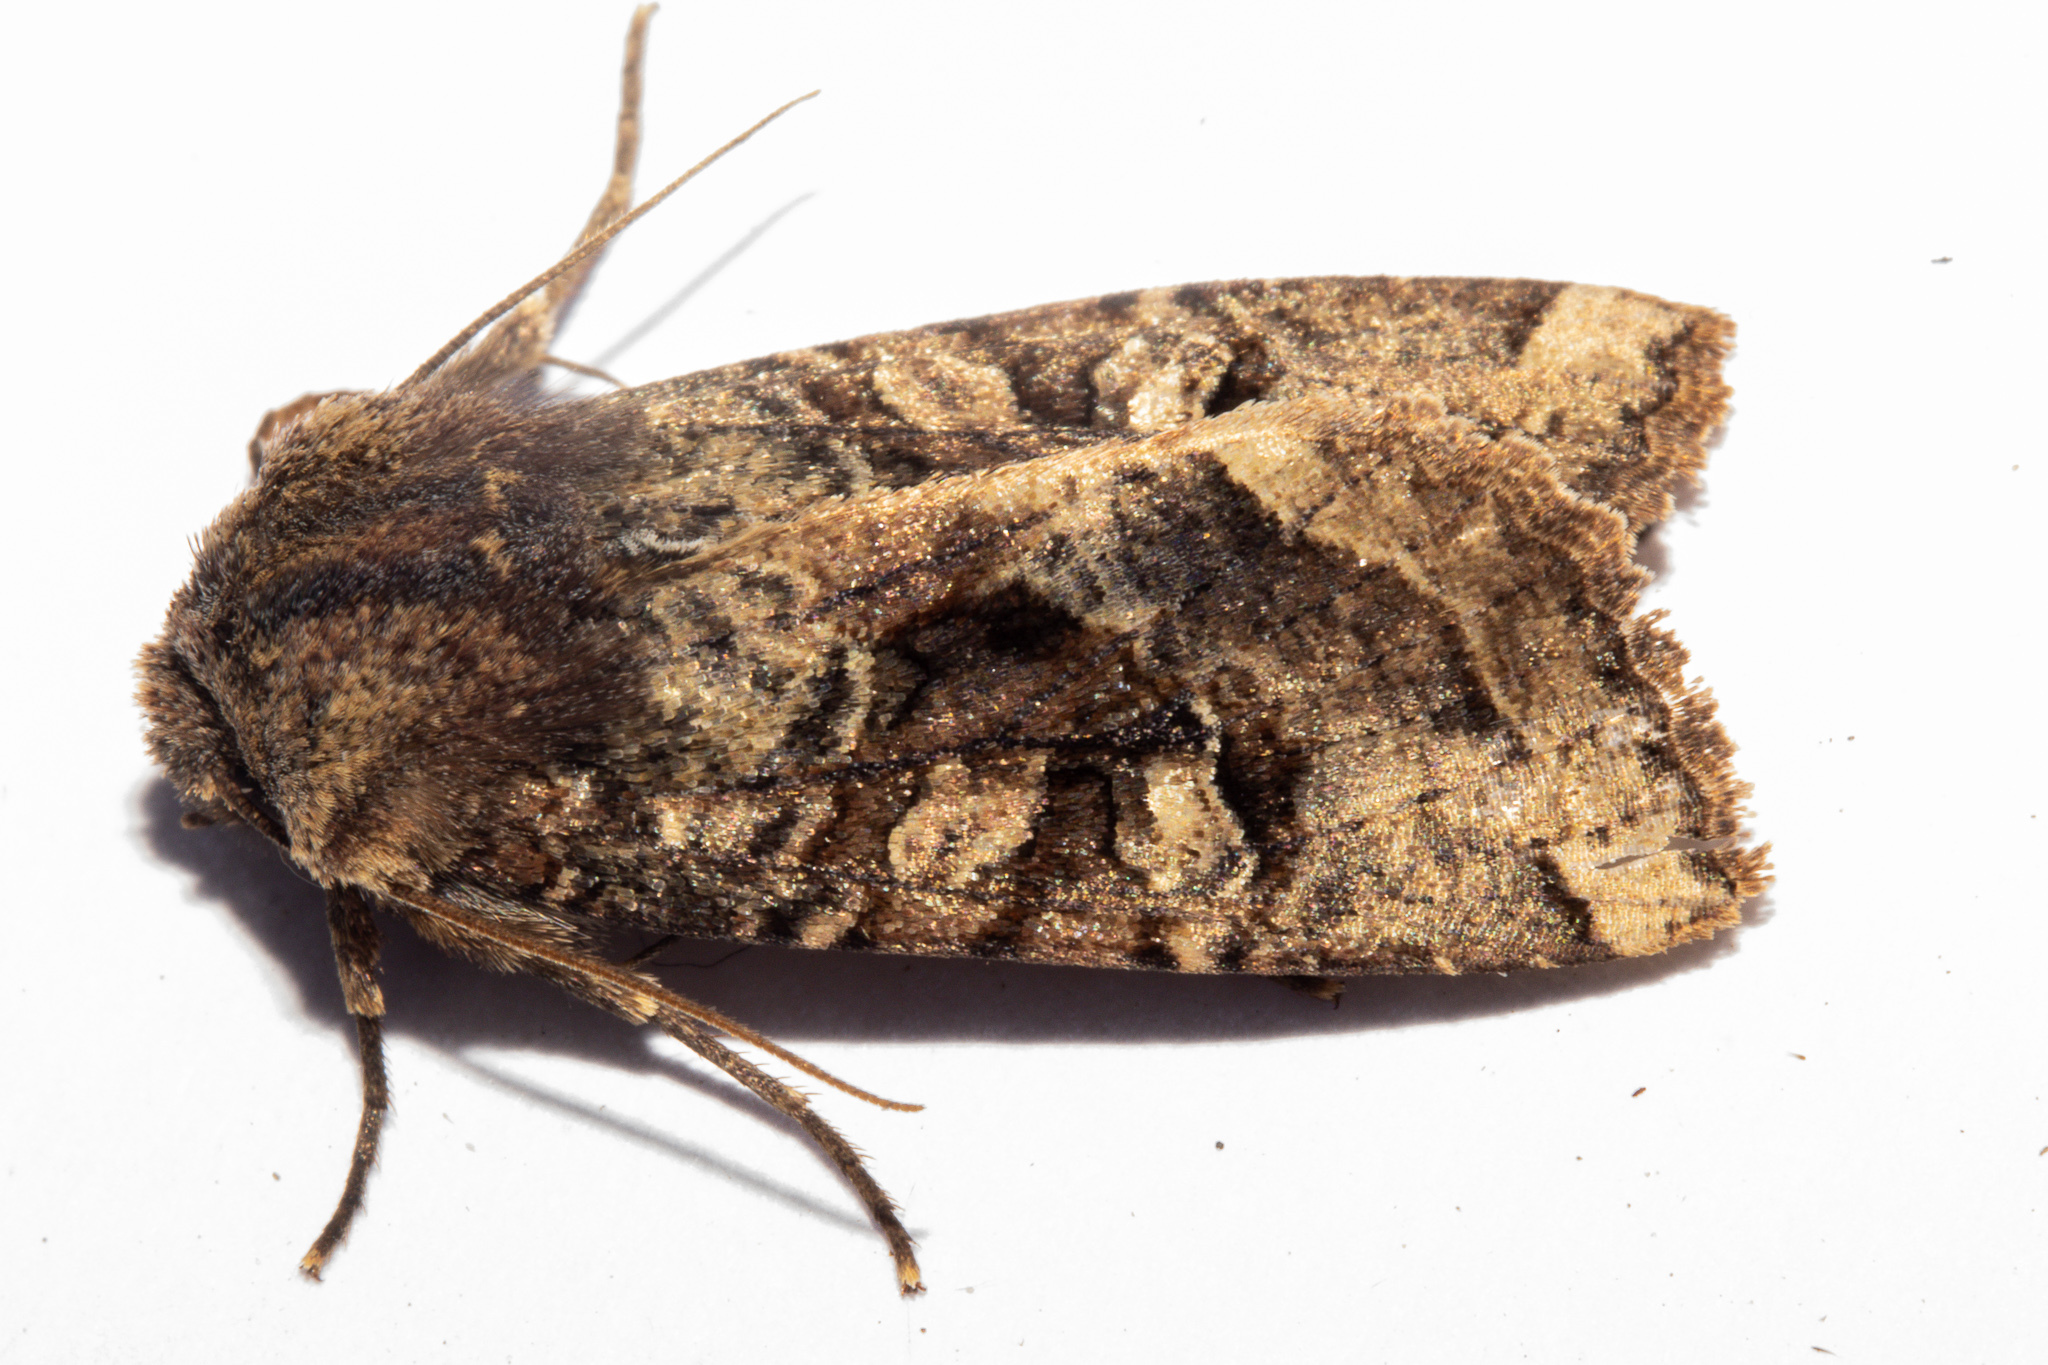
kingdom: Animalia
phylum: Arthropoda
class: Insecta
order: Lepidoptera
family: Noctuidae
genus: Meterana
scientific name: Meterana tartaraea
